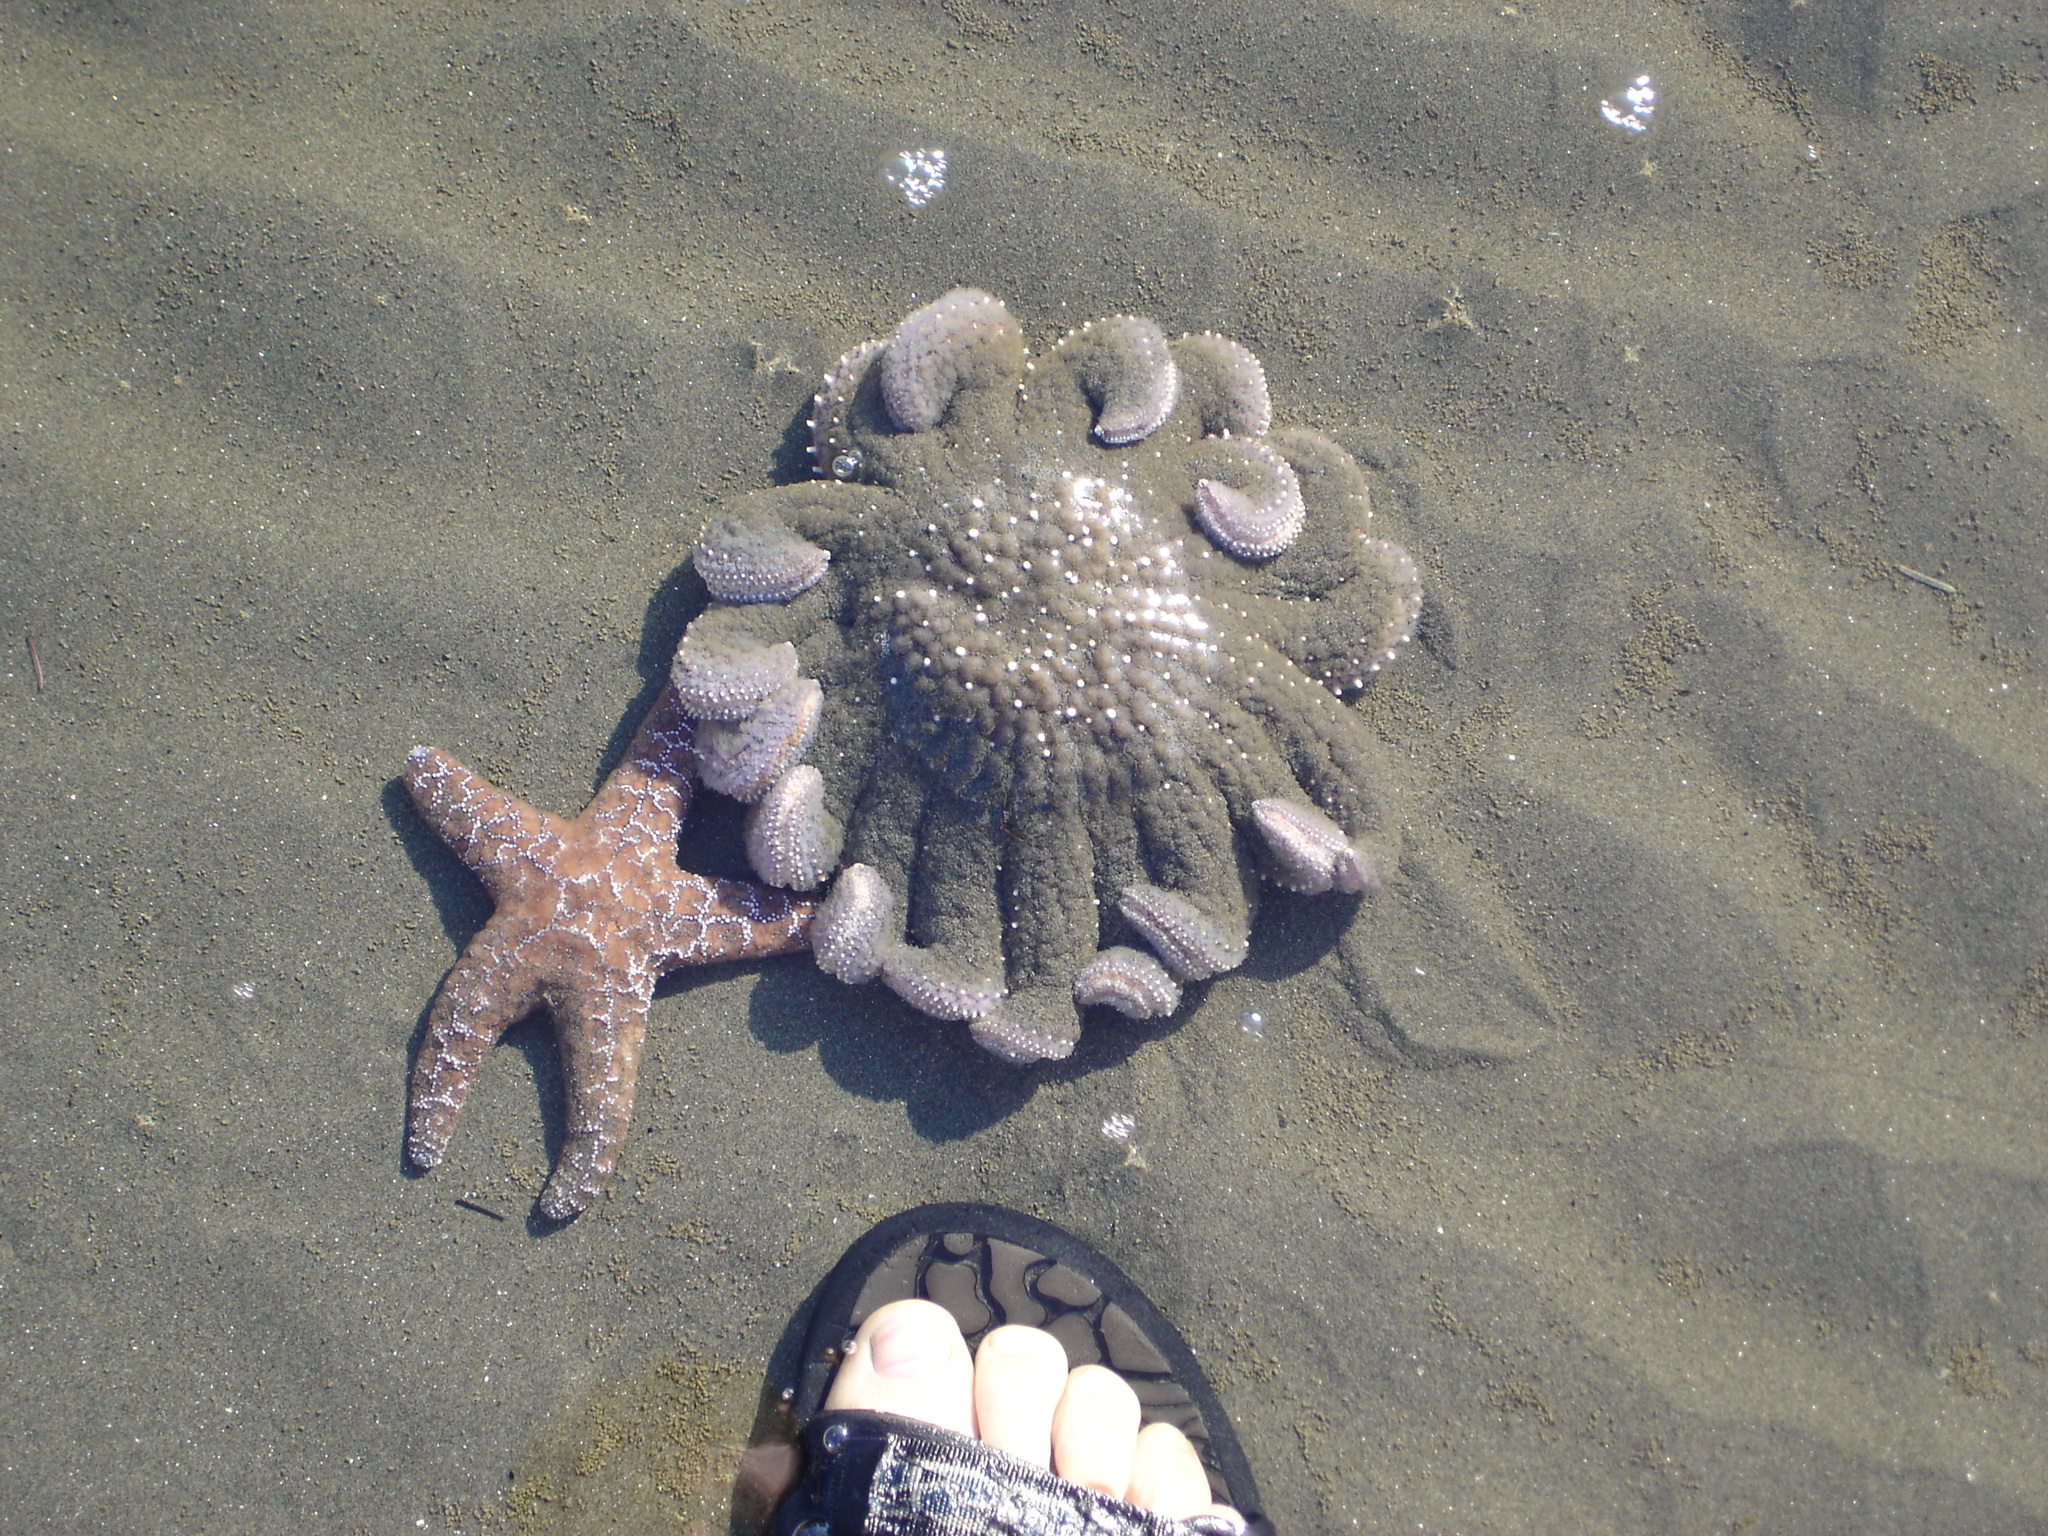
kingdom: Animalia
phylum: Echinodermata
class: Asteroidea
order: Forcipulatida
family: Asteriidae
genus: Pycnopodia
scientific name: Pycnopodia helianthoides
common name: Rag mop
